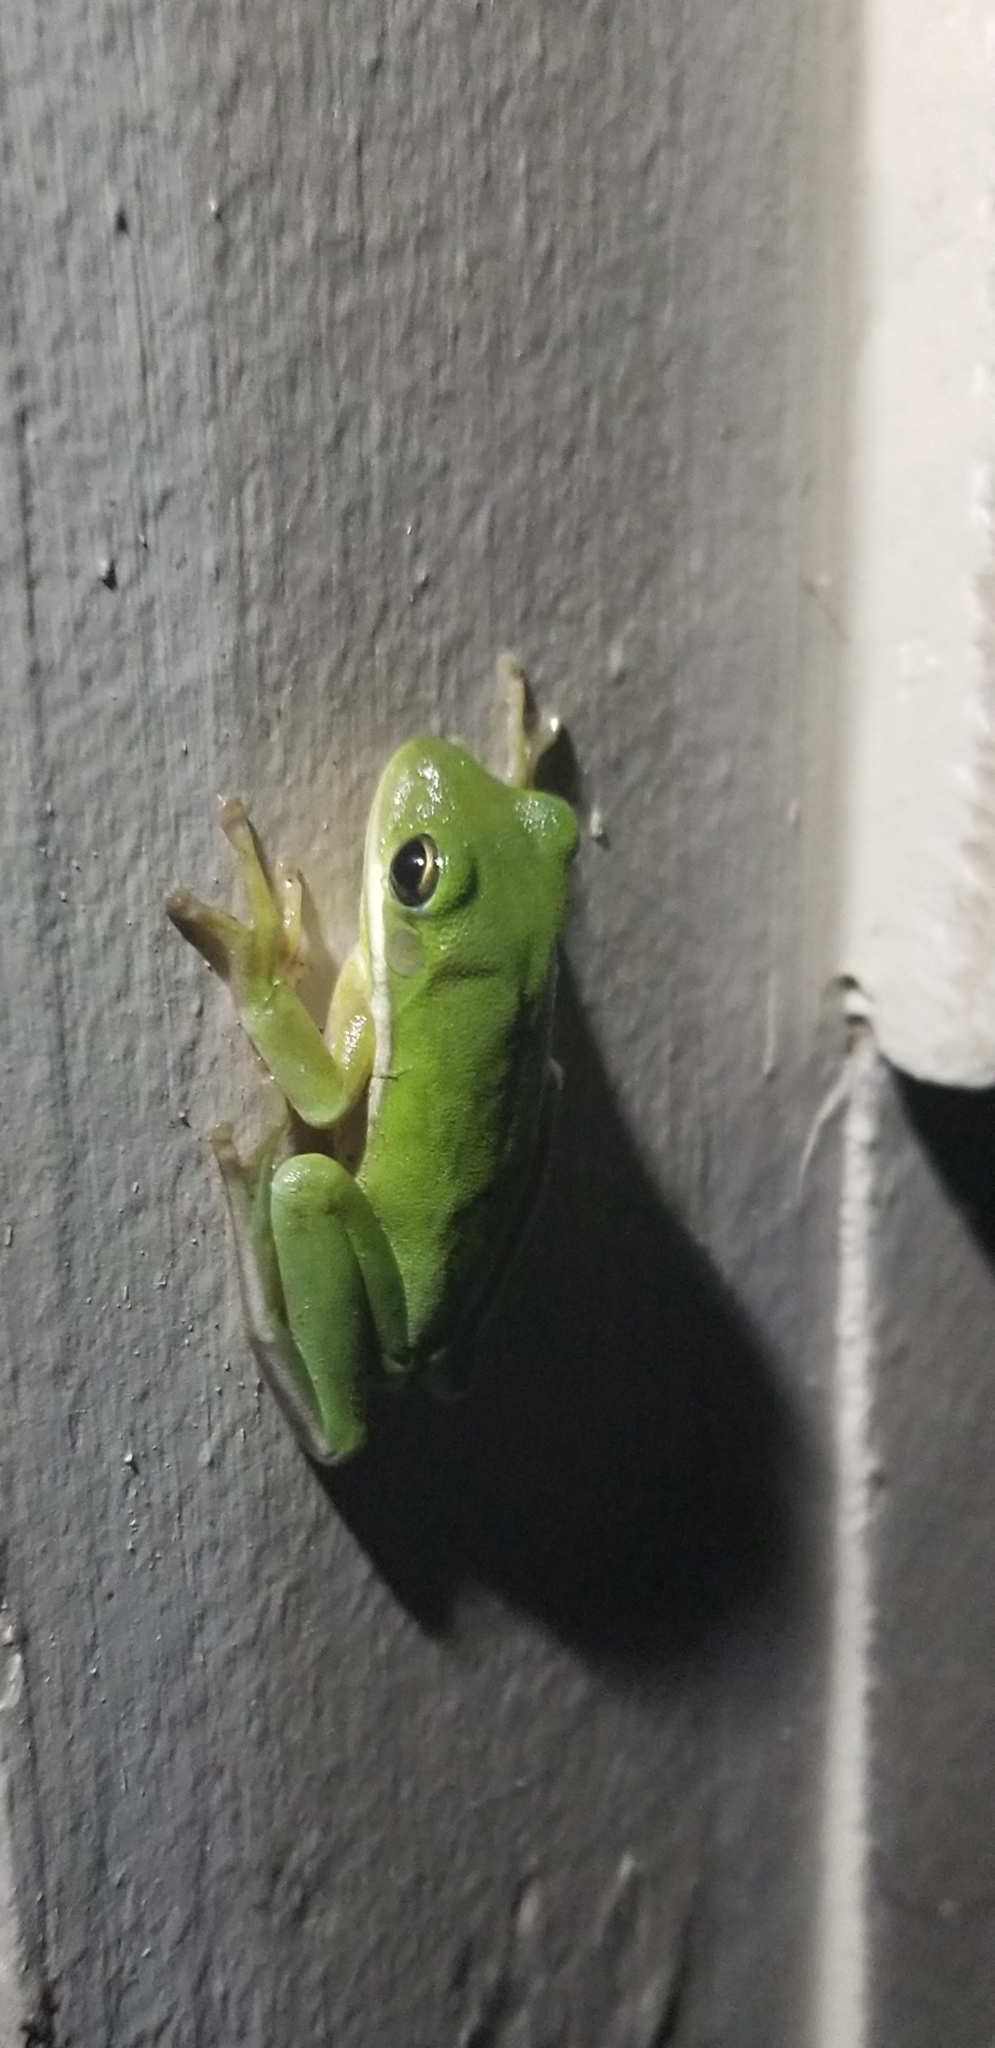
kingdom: Animalia
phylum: Chordata
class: Amphibia
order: Anura
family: Hylidae
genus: Dryophytes
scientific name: Dryophytes cinereus
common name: Green treefrog
